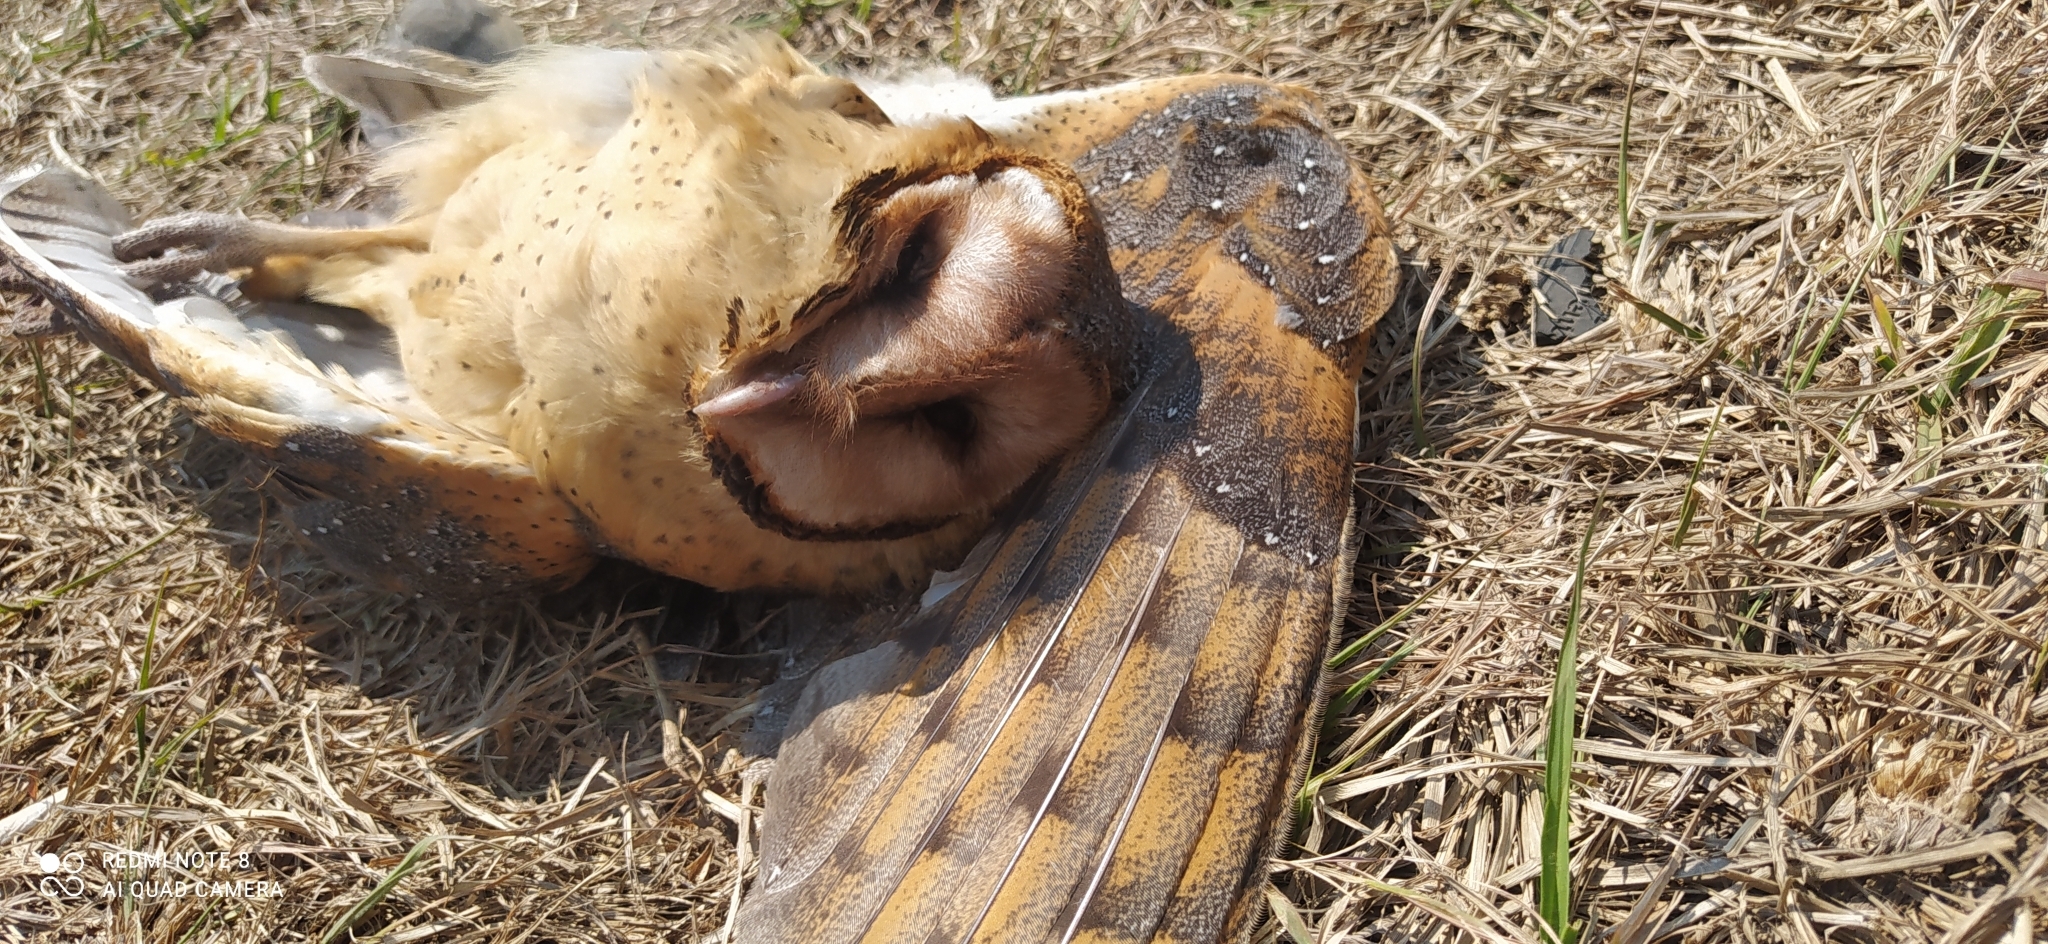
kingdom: Animalia
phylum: Chordata
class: Aves
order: Strigiformes
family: Tytonidae
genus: Tyto
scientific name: Tyto alba
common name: Barn owl
